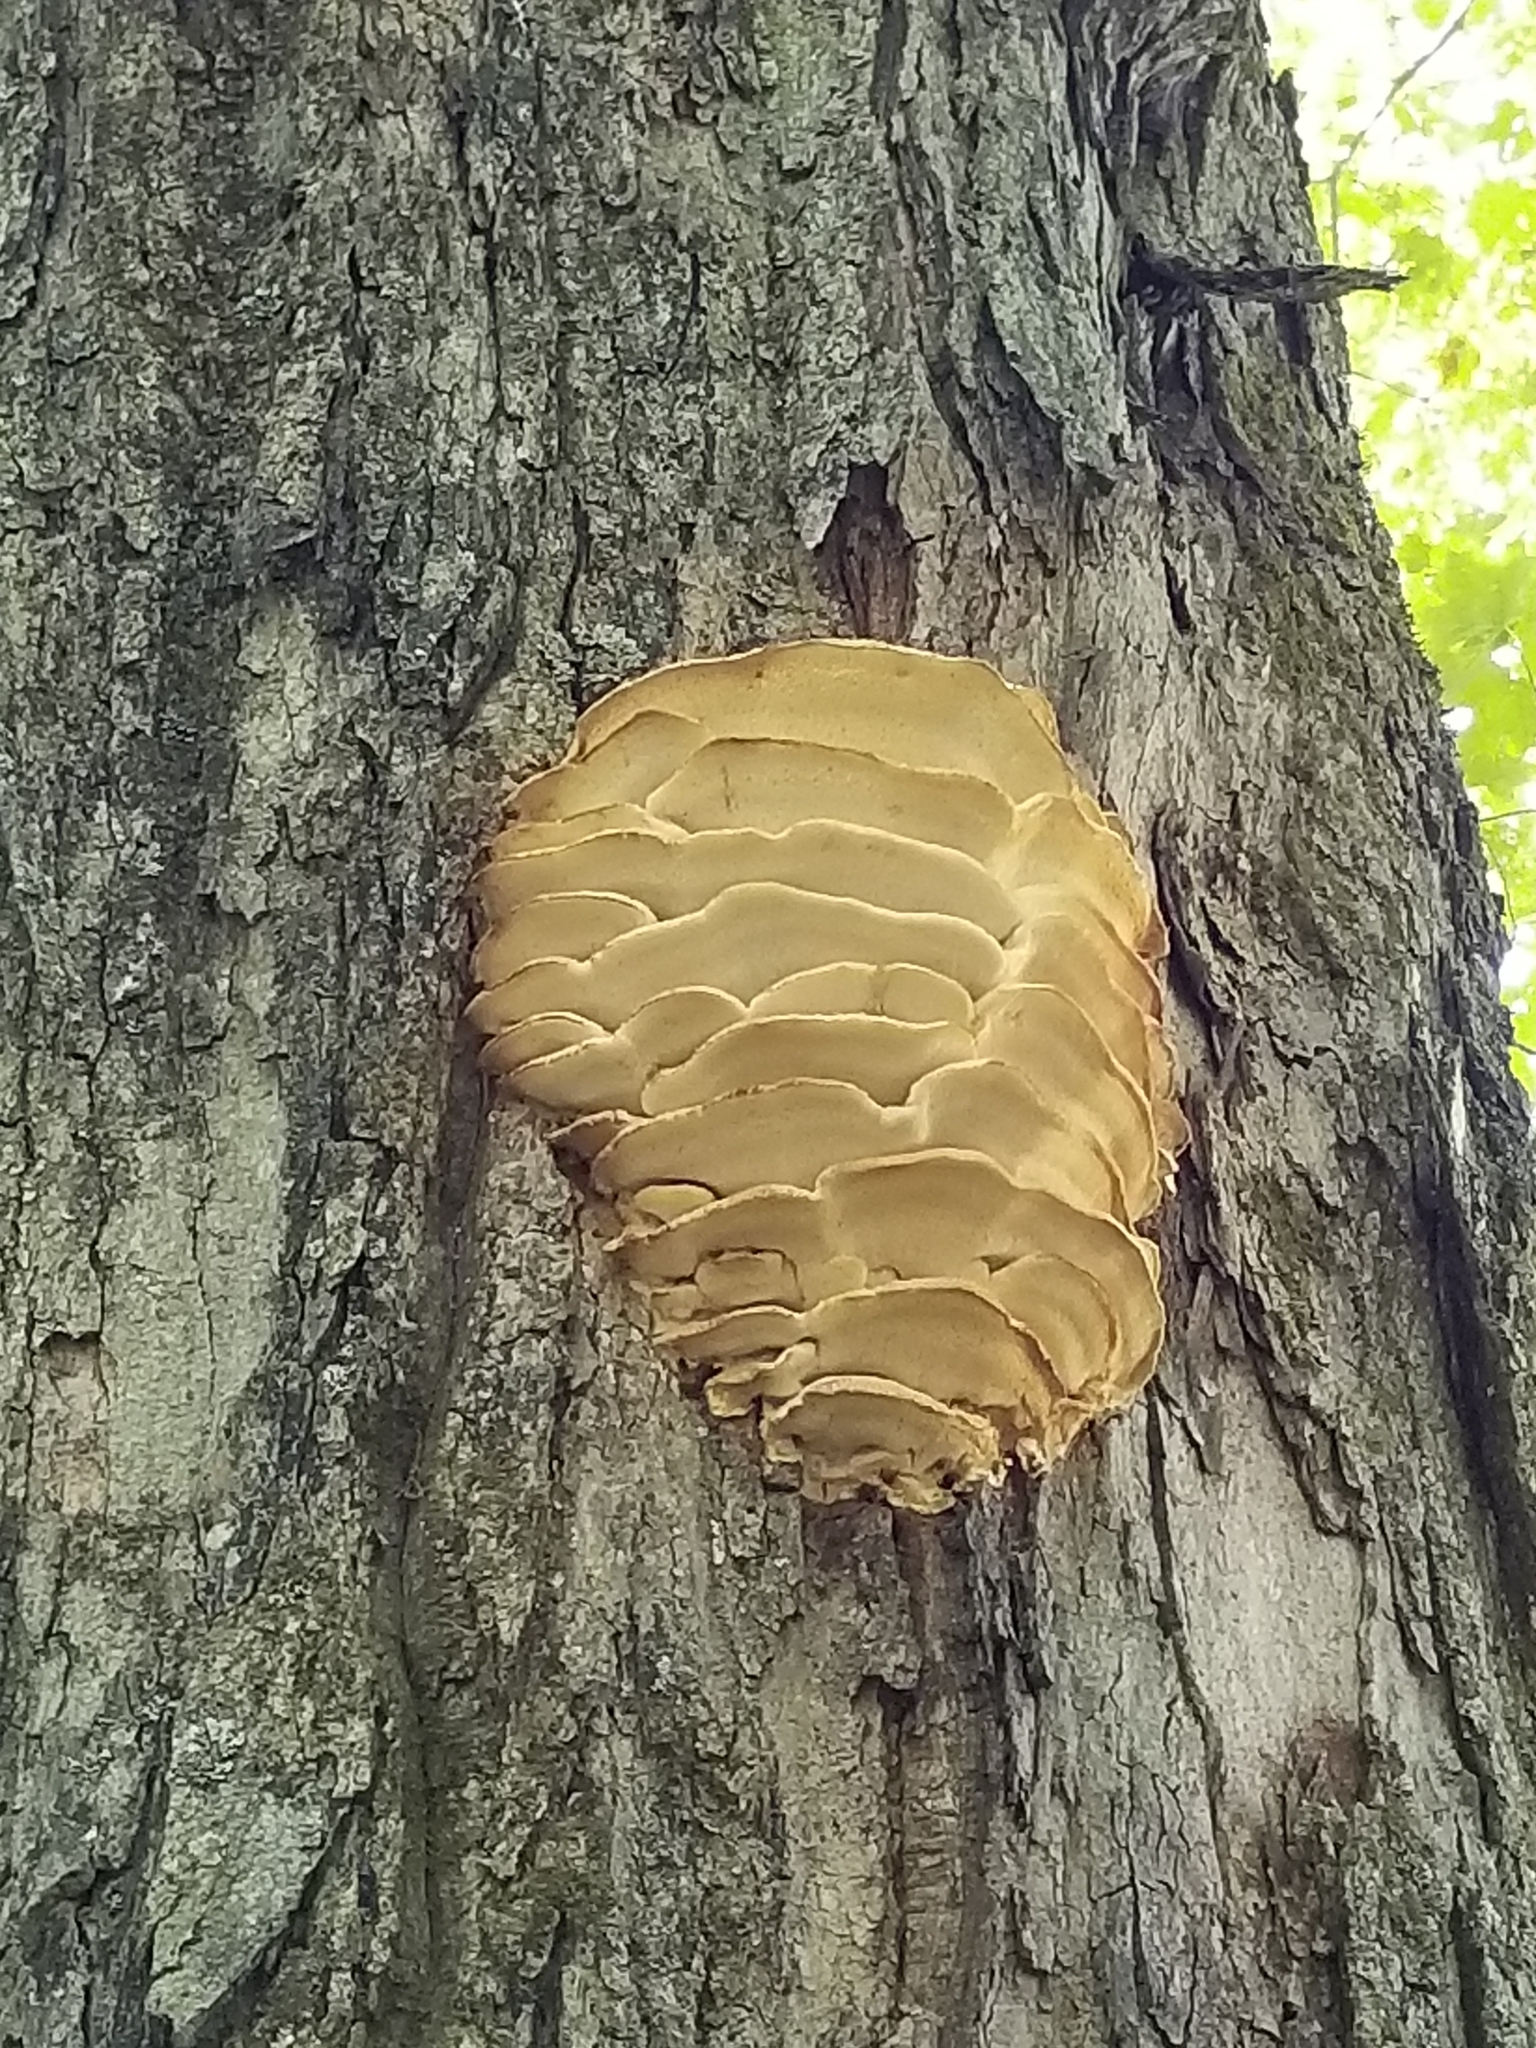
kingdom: Fungi
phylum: Basidiomycota
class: Agaricomycetes
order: Polyporales
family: Meruliaceae
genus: Climacodon
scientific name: Climacodon septentrionalis
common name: Northern tooth
